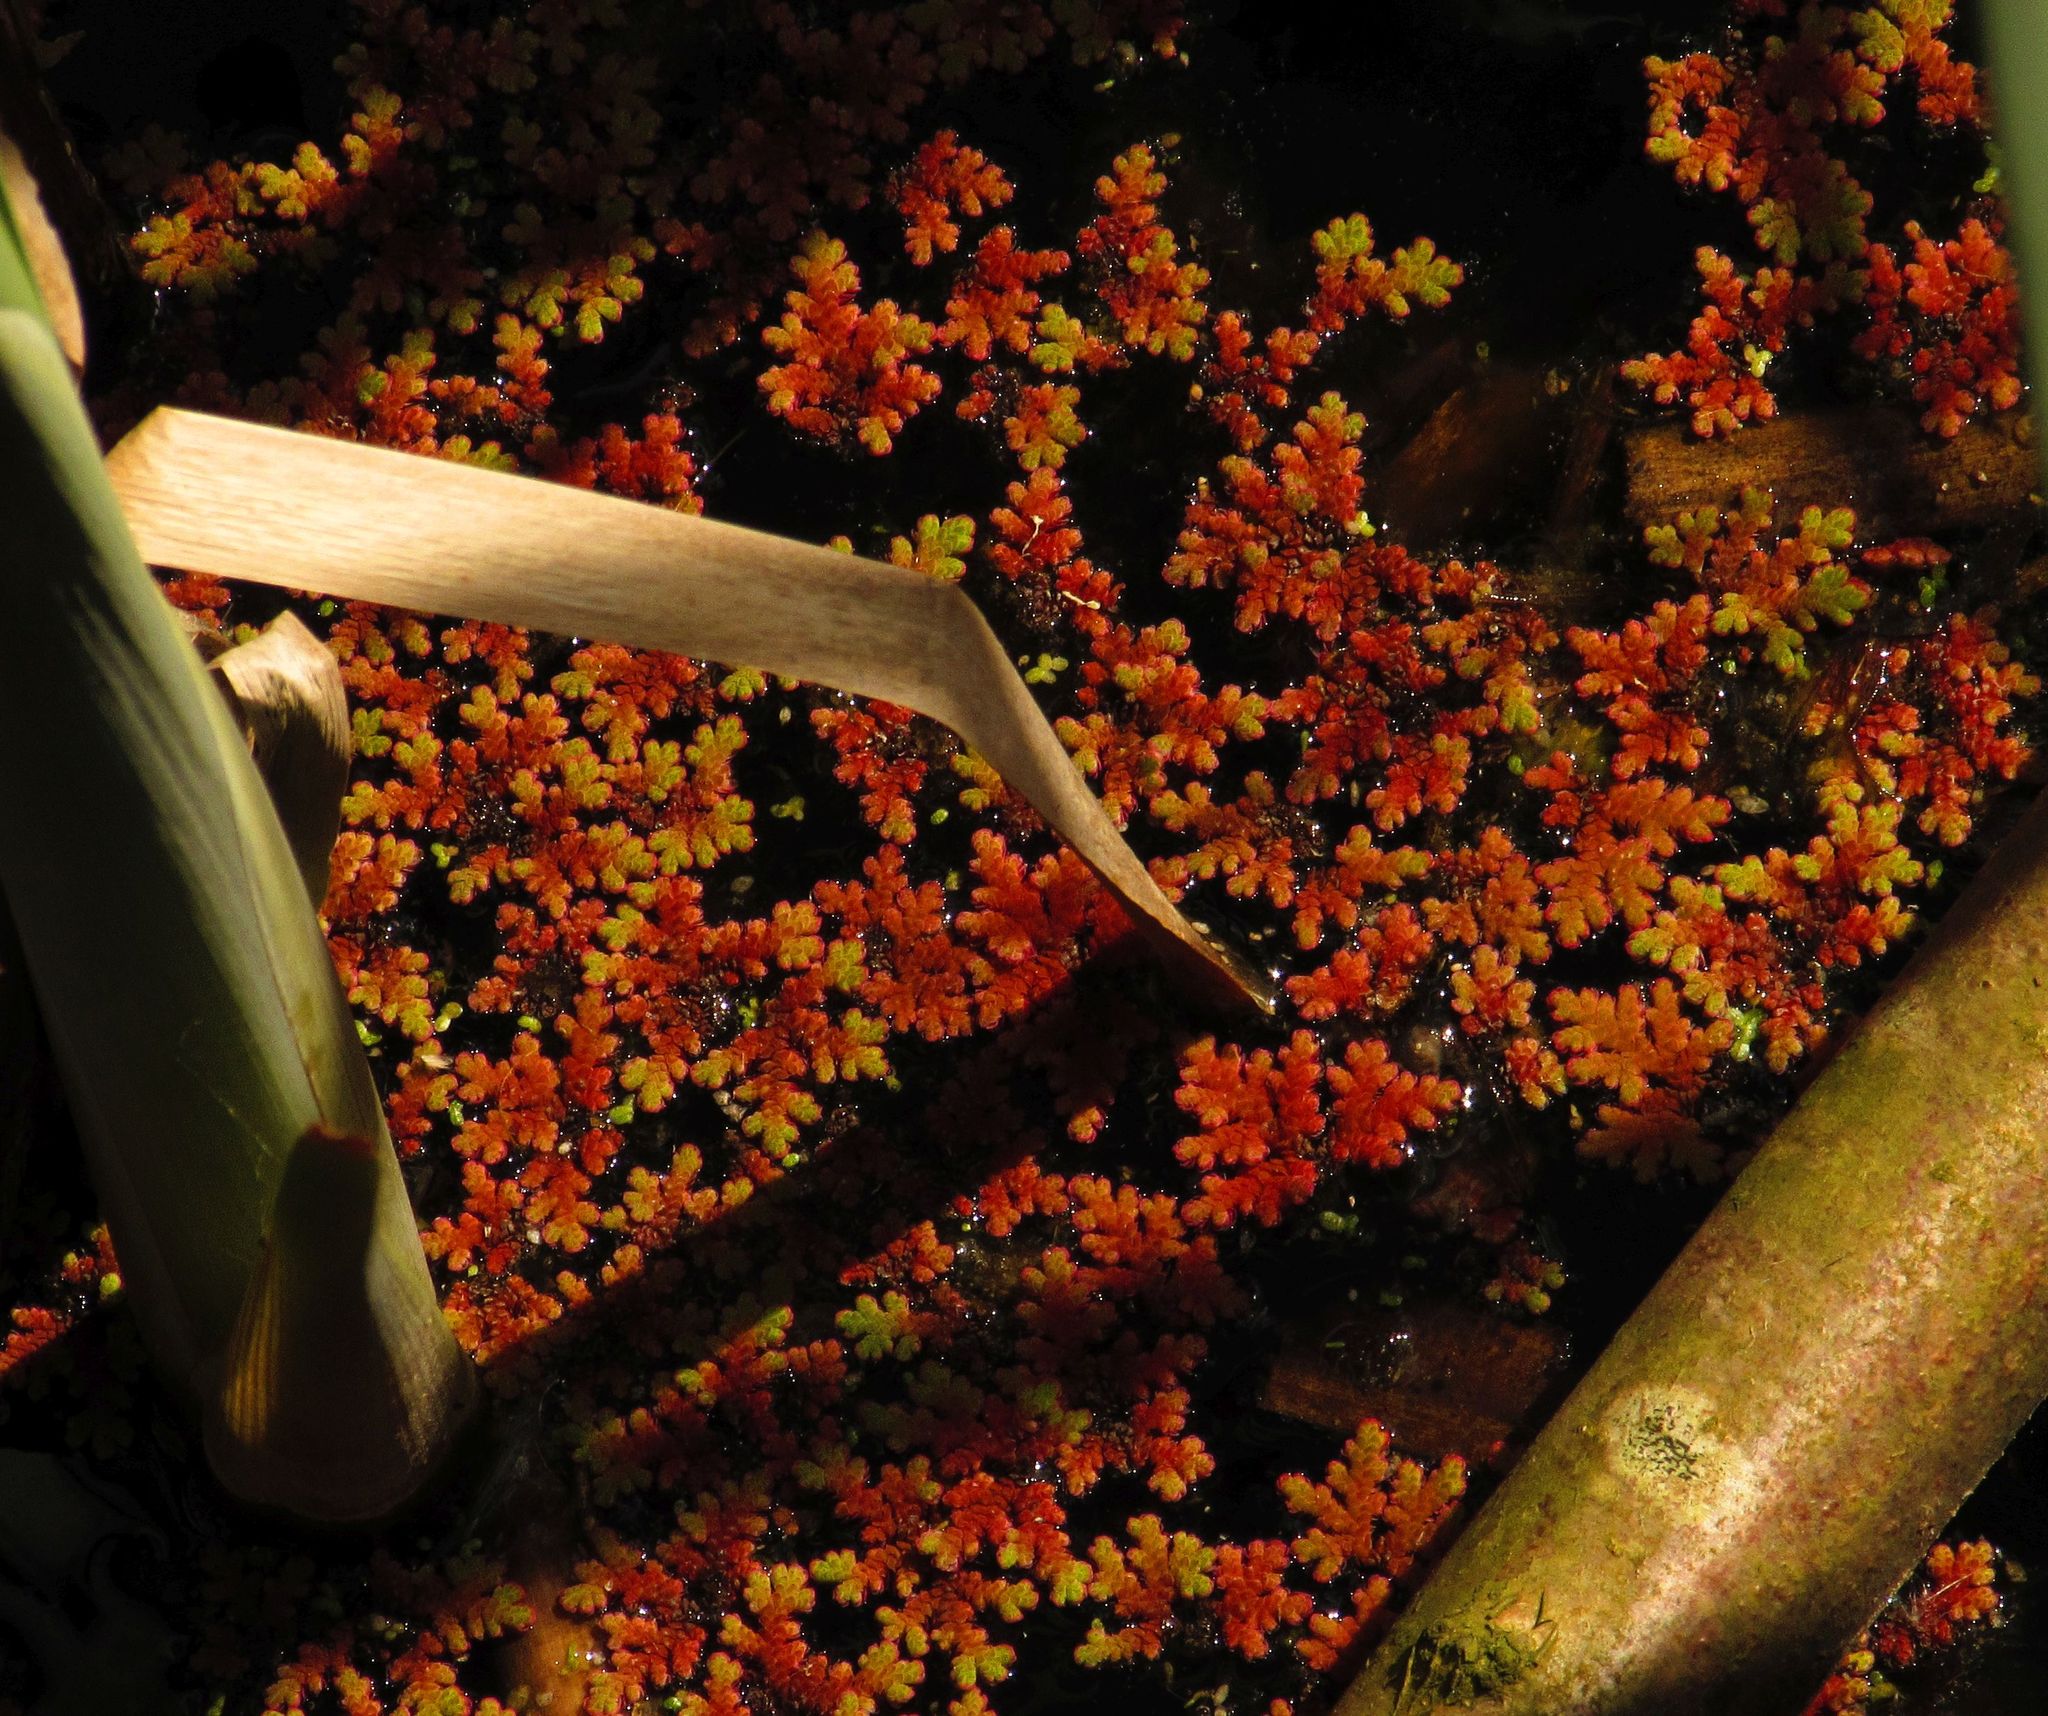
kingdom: Plantae
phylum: Tracheophyta
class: Polypodiopsida
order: Salviniales
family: Salviniaceae
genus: Azolla
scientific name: Azolla filiculoides
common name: Water fern
